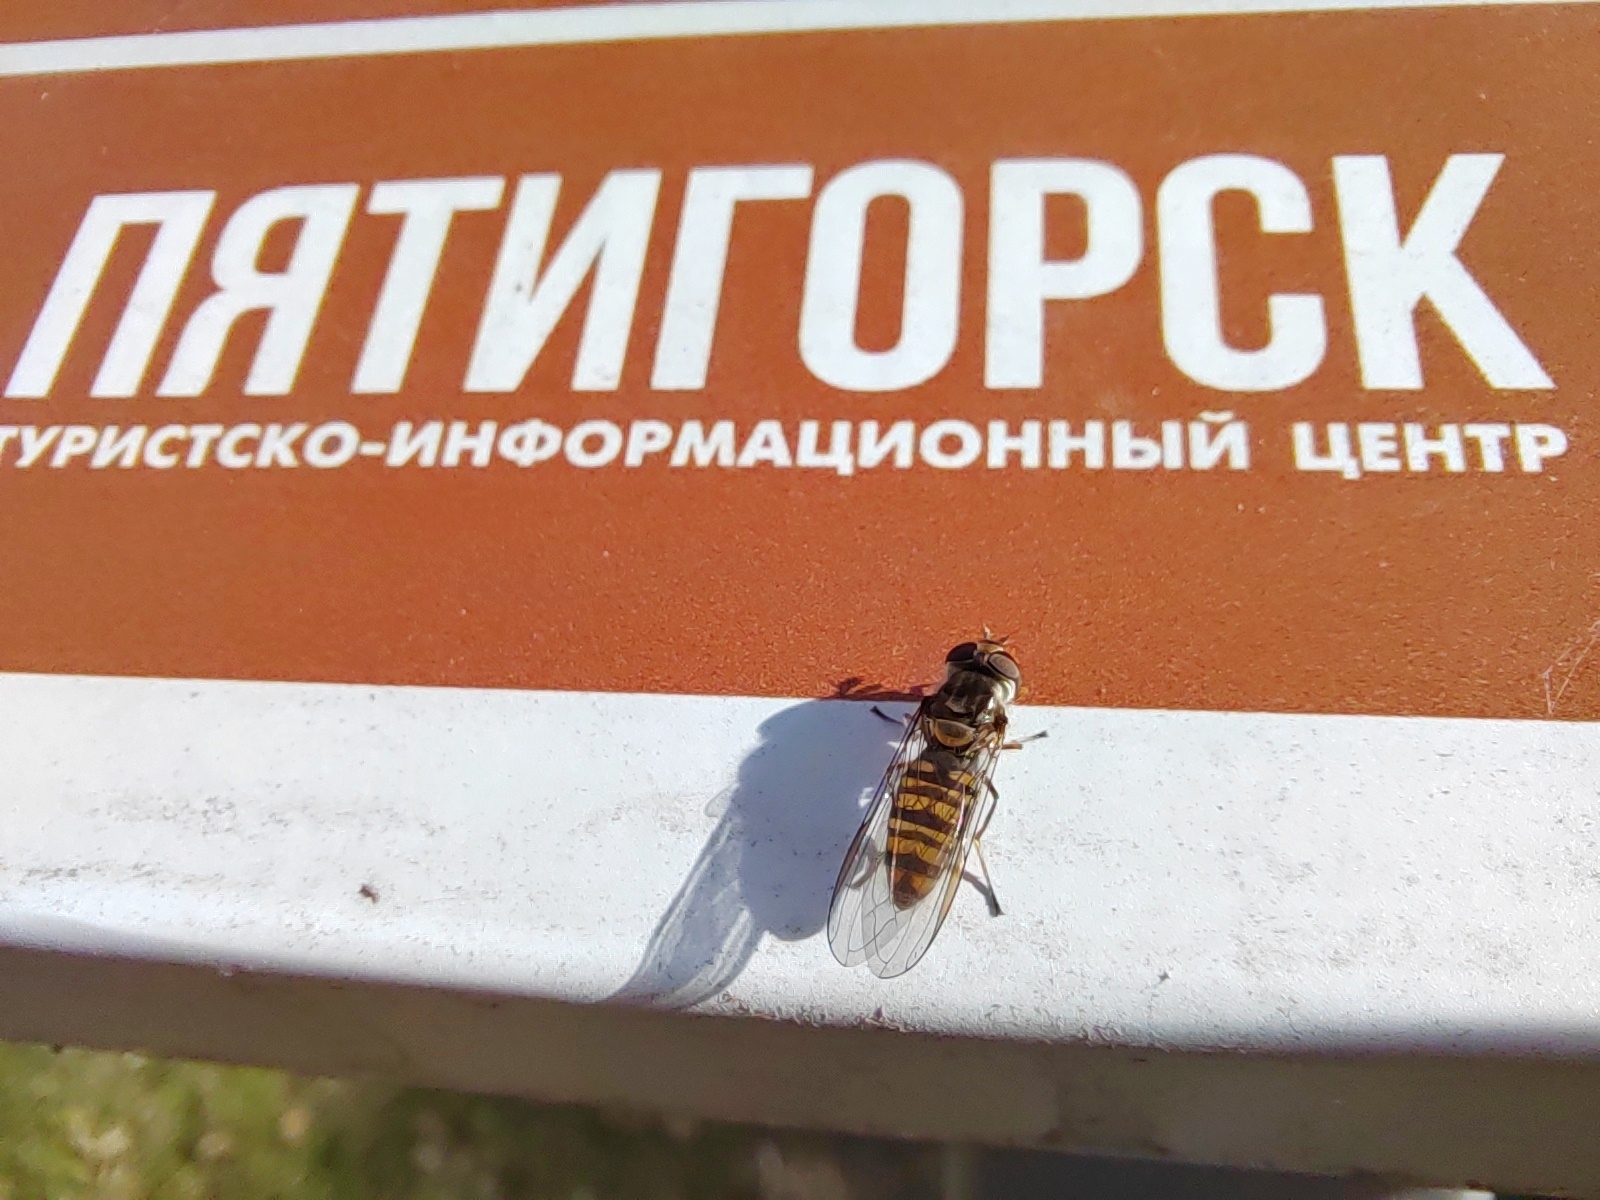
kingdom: Animalia
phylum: Arthropoda
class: Insecta
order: Diptera
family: Syrphidae
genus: Episyrphus
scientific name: Episyrphus balteatus
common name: Marmalade hoverfly
